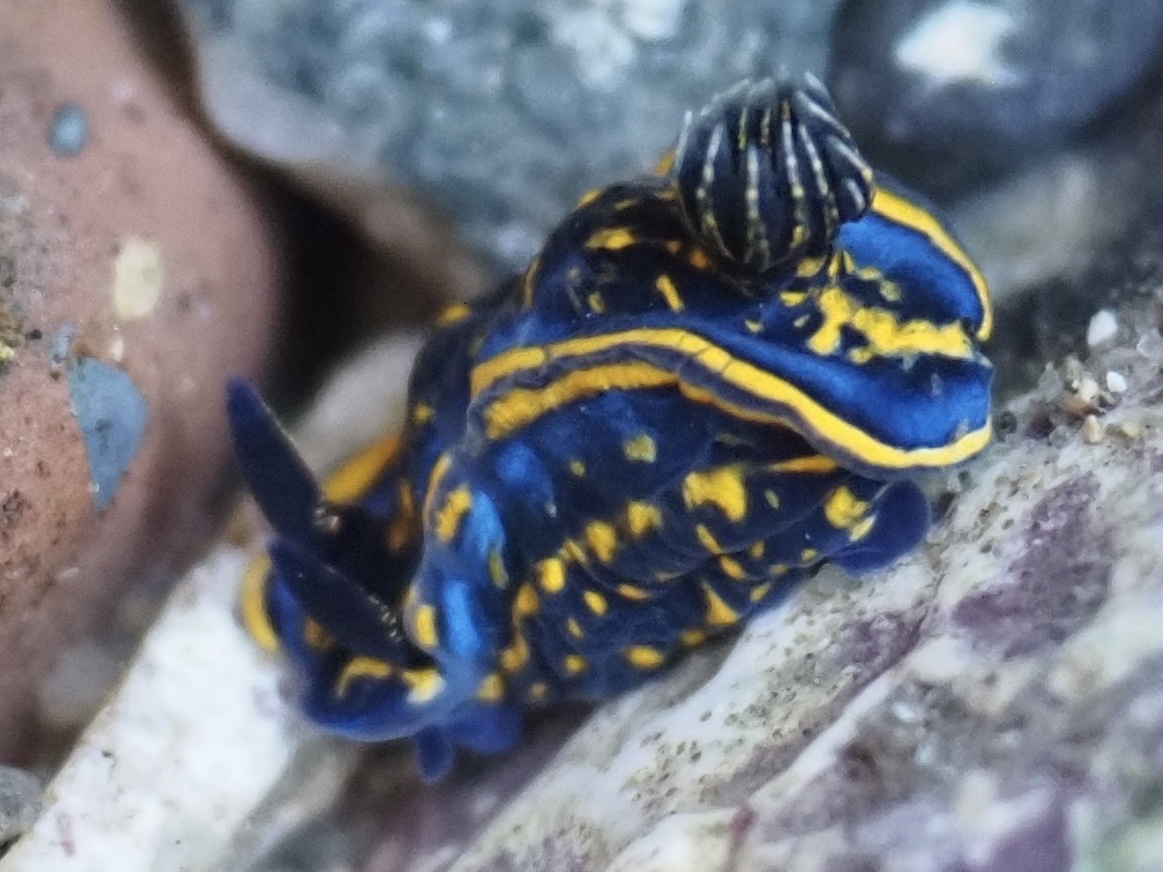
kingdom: Animalia
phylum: Mollusca
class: Gastropoda
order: Nudibranchia
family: Chromodorididae
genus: Felimare
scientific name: Felimare cantabrica
